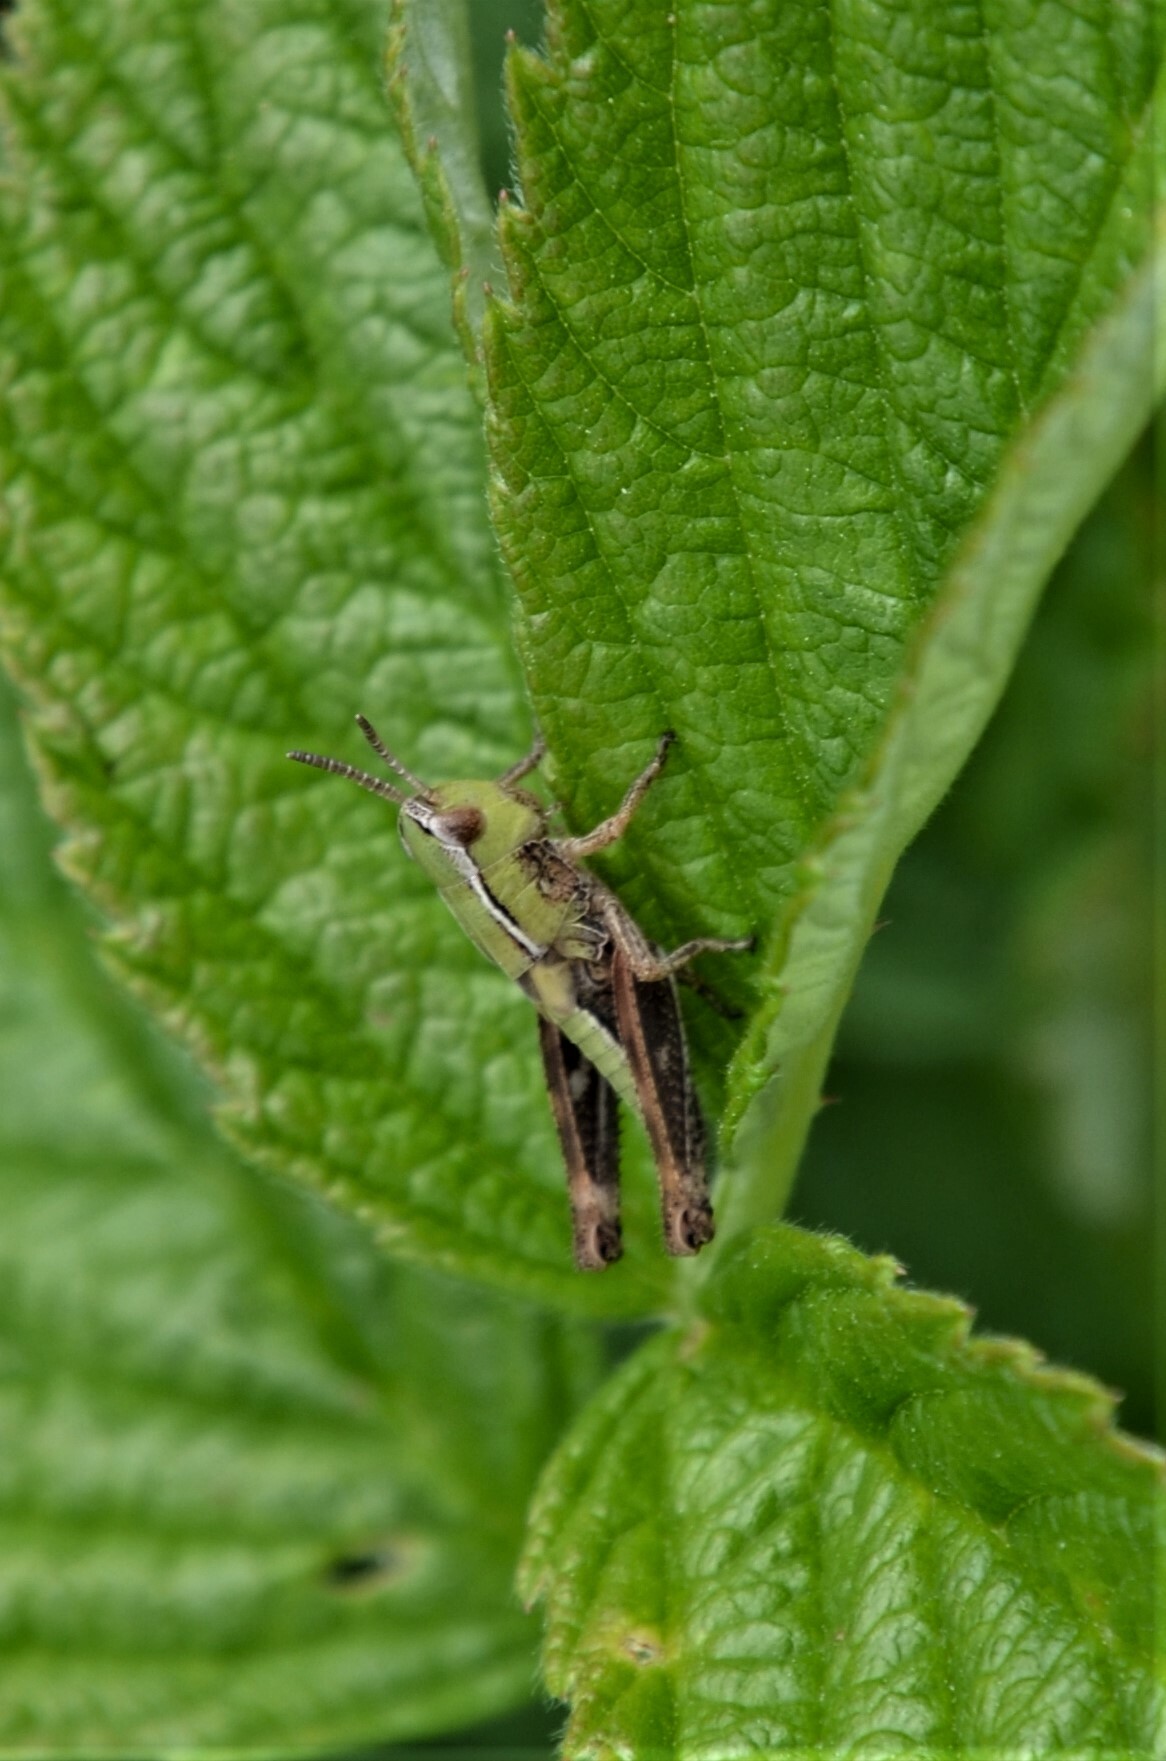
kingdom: Animalia
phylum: Arthropoda
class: Insecta
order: Orthoptera
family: Acrididae
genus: Stenobothrus
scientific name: Stenobothrus lineatus
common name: Stripe-winged grasshopper
